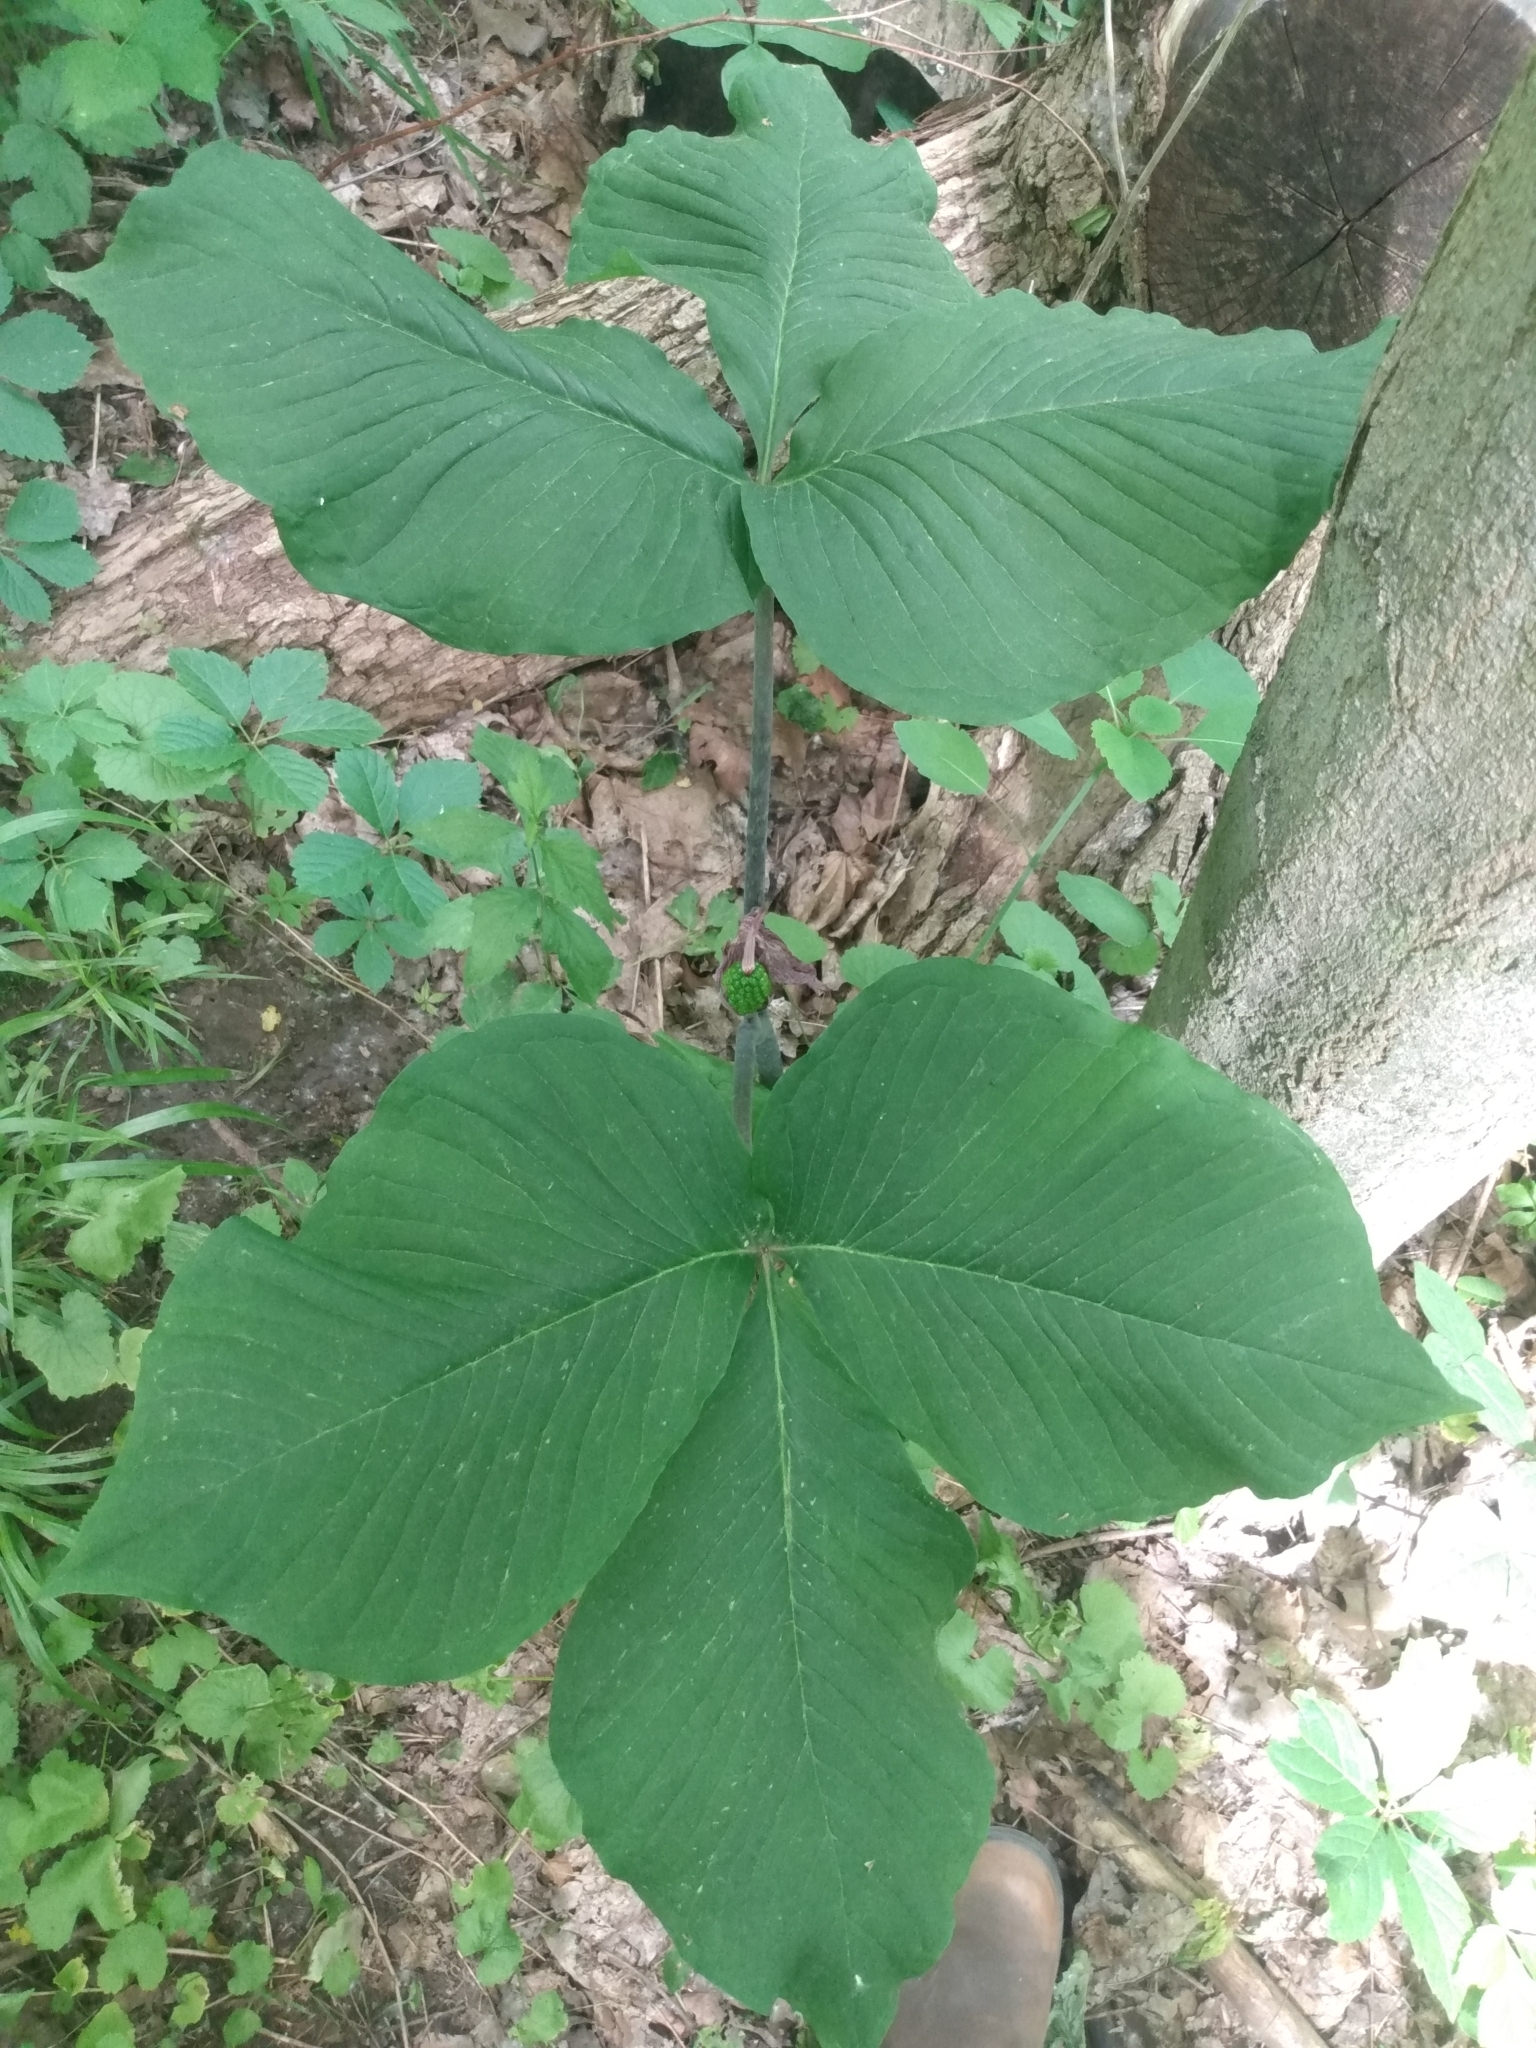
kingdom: Plantae
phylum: Tracheophyta
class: Liliopsida
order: Alismatales
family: Araceae
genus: Arisaema
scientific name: Arisaema triphyllum
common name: Jack-in-the-pulpit
